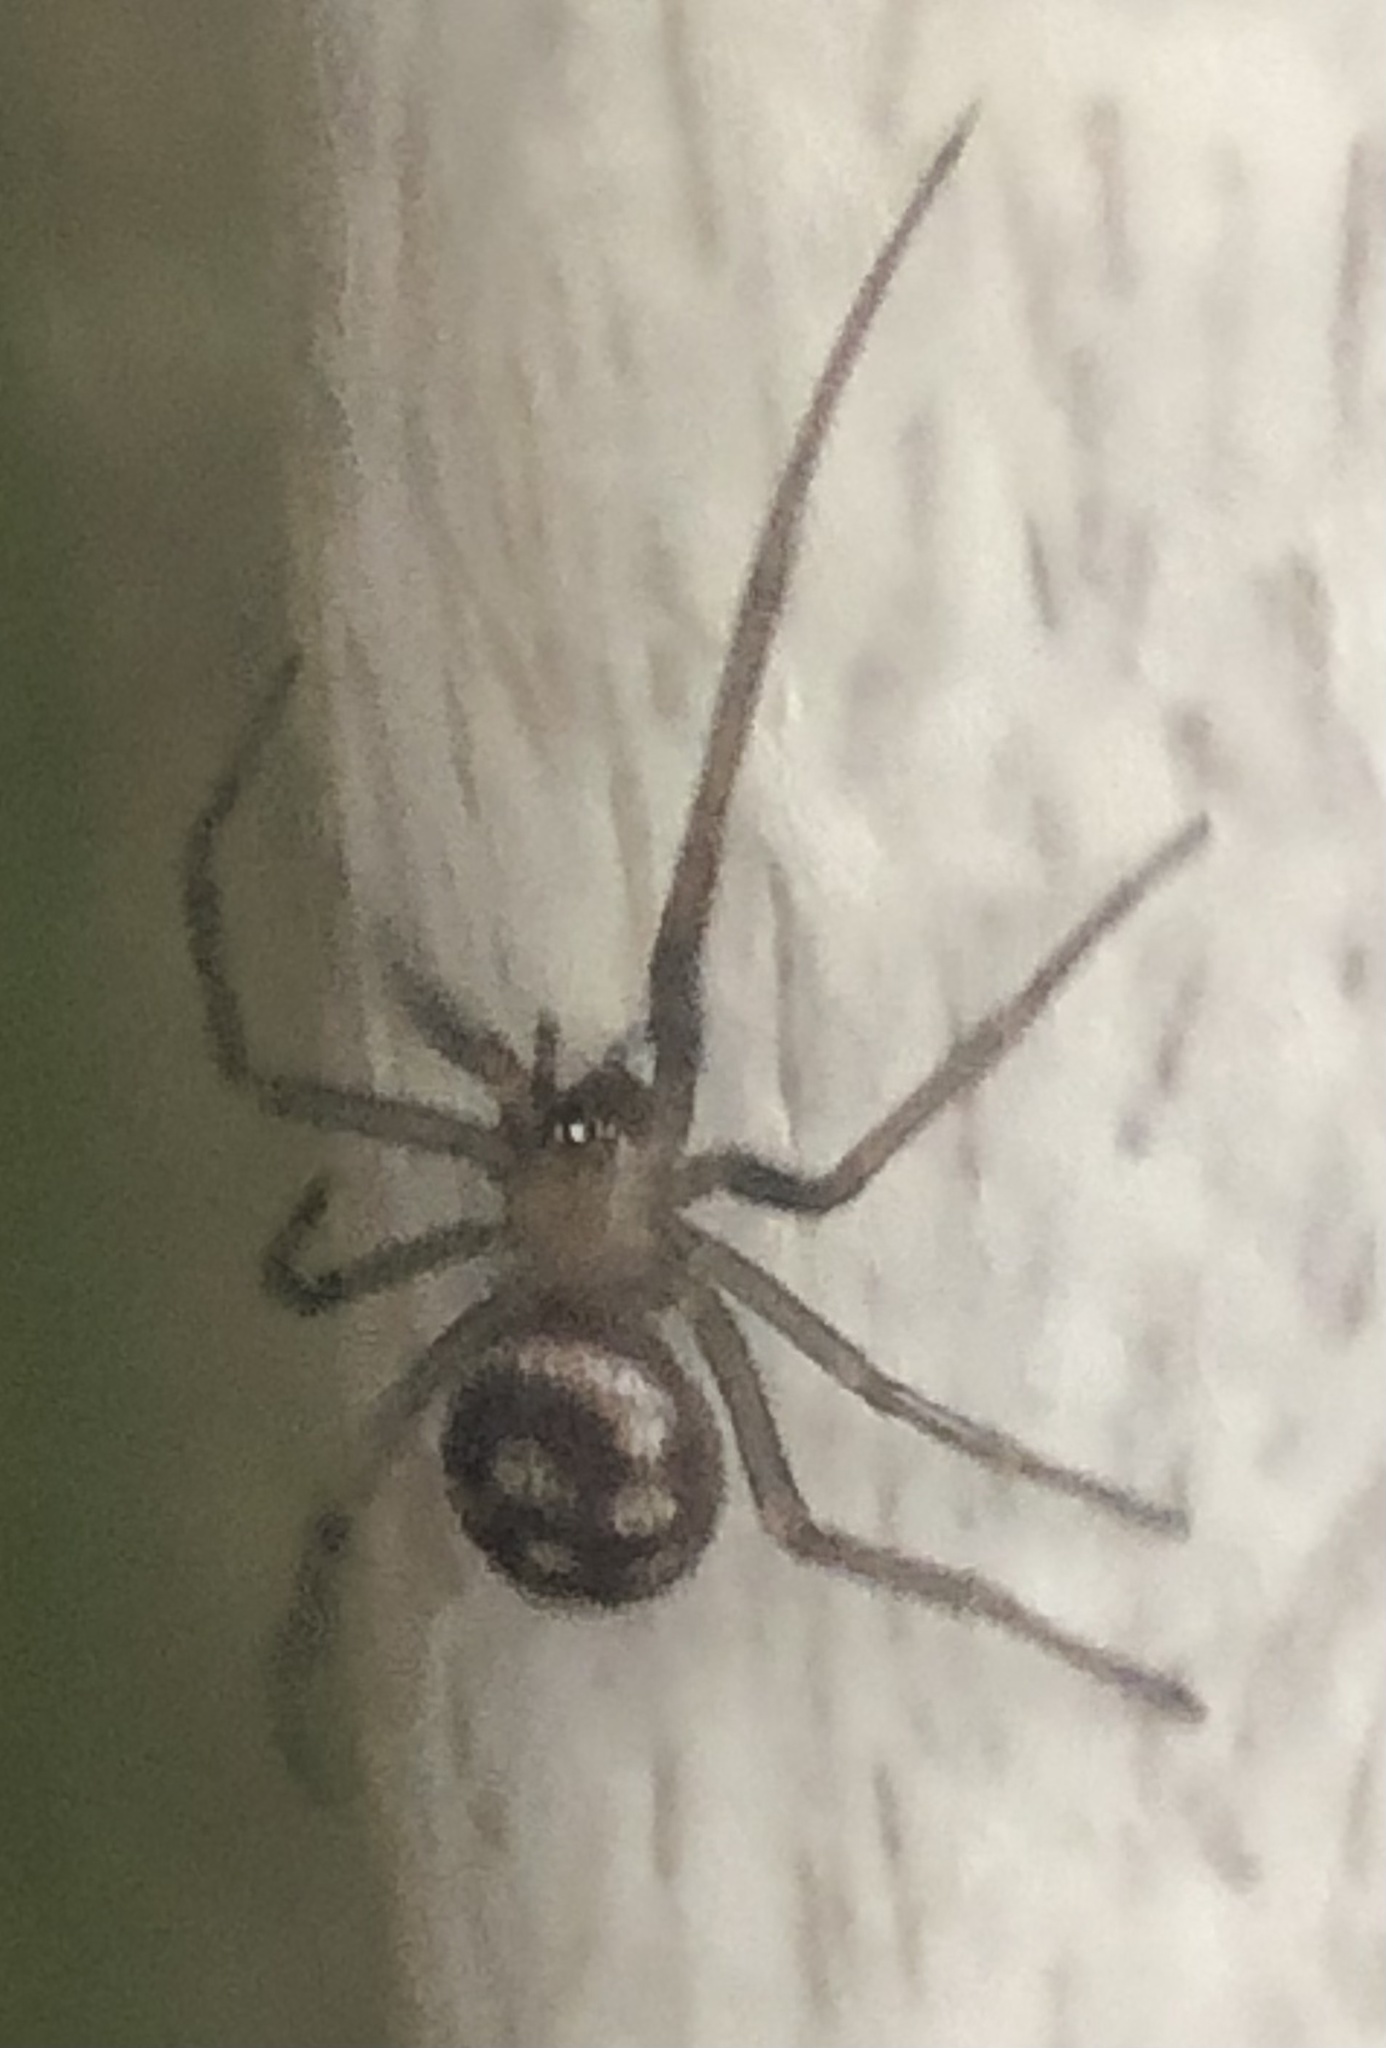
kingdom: Animalia
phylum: Arthropoda
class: Arachnida
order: Araneae
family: Theridiidae
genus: Steatoda
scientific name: Steatoda grossa
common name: False black widow
